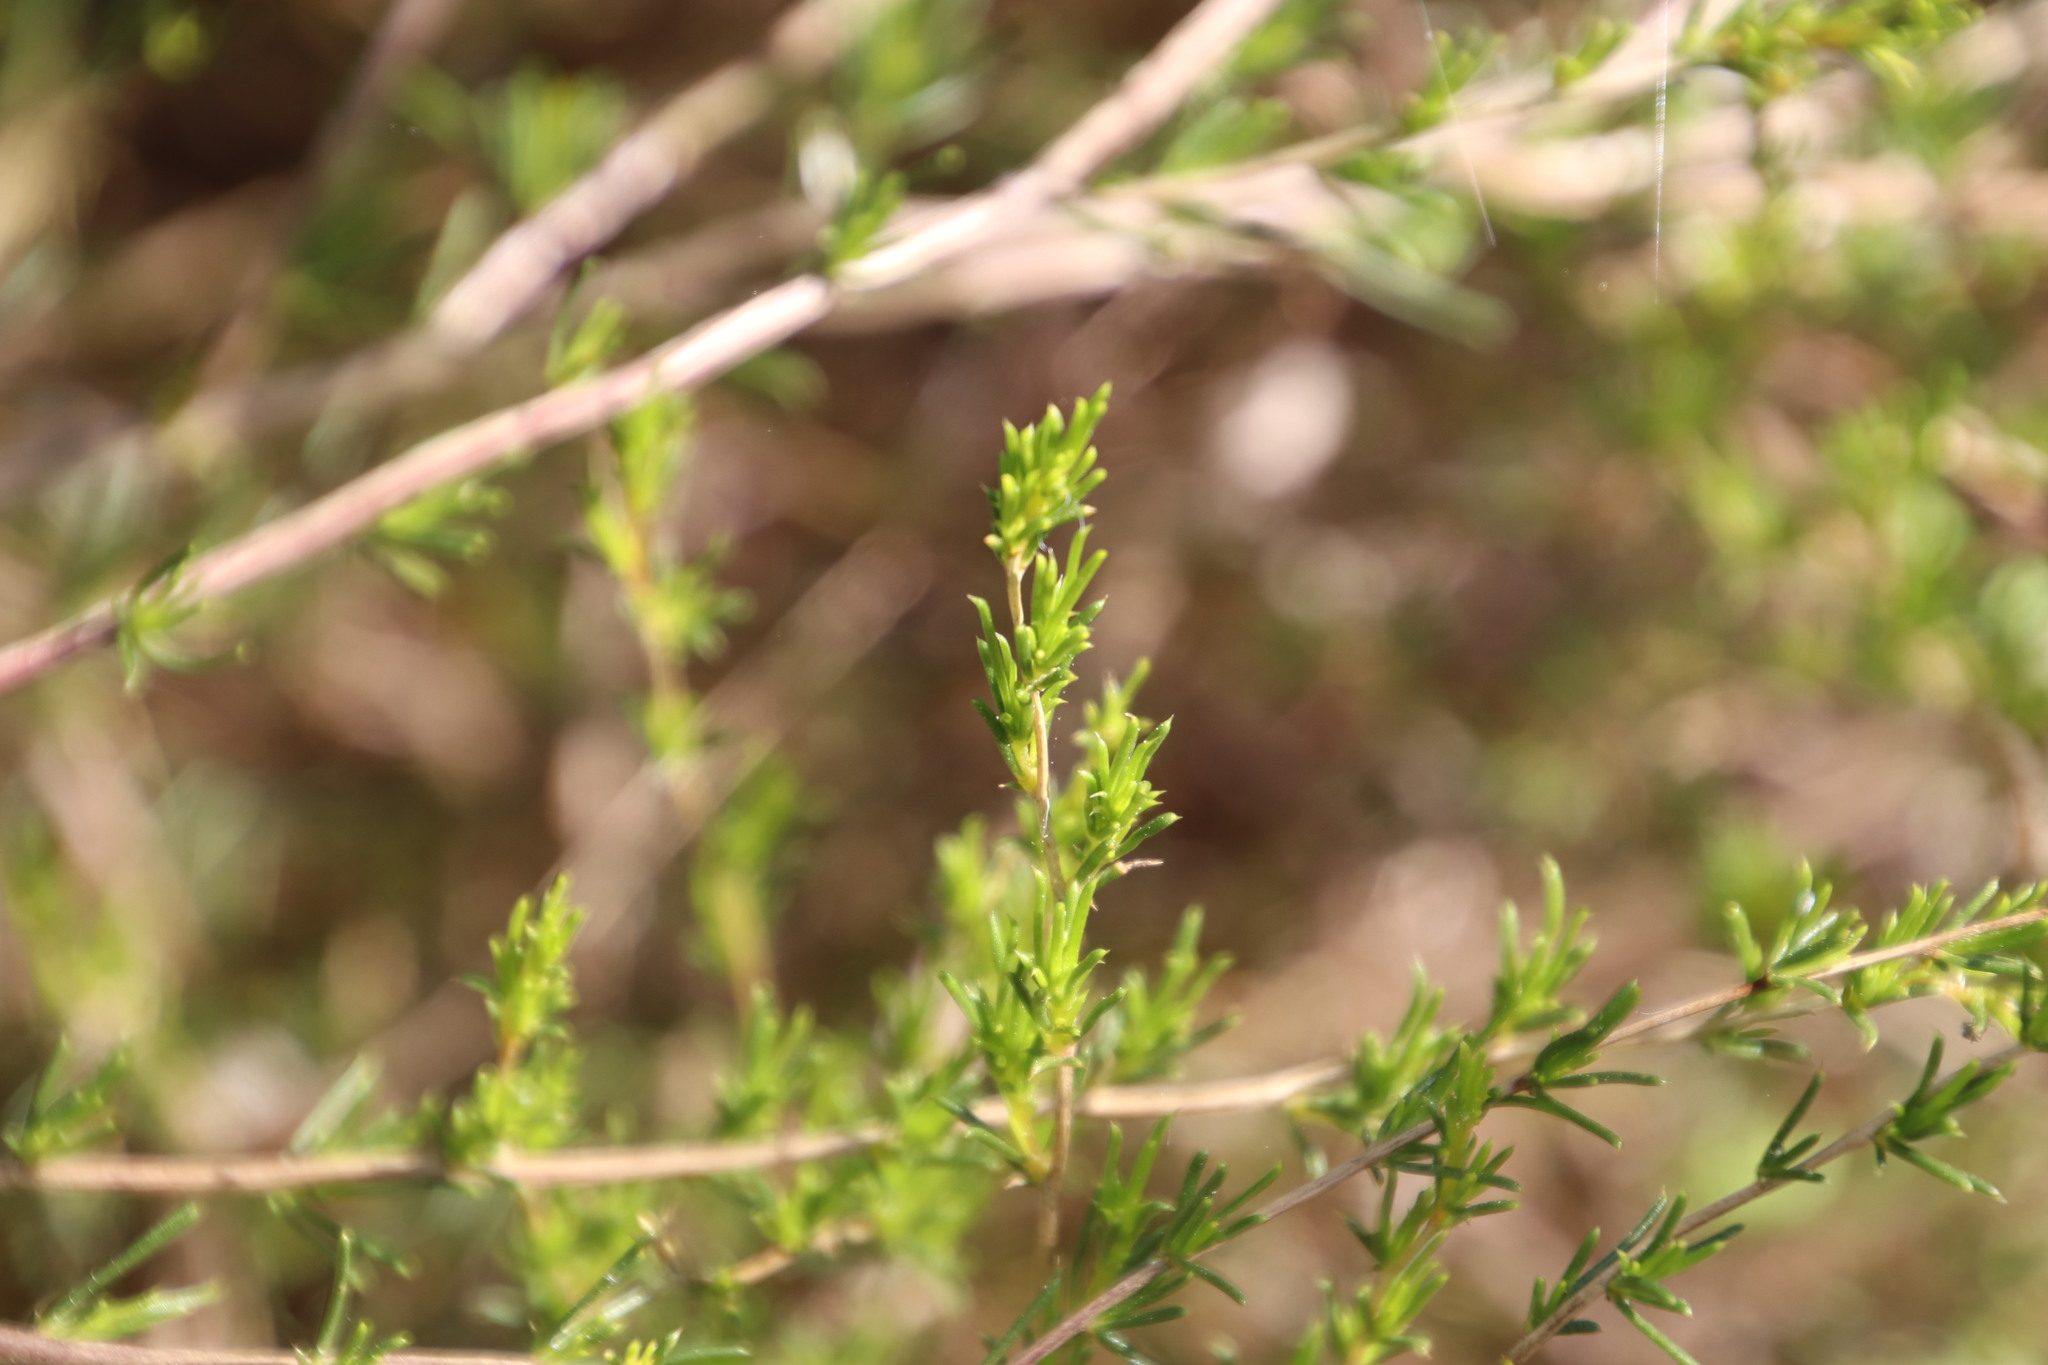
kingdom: Plantae
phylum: Tracheophyta
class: Magnoliopsida
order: Fabales
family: Fabaceae
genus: Aspalathus
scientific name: Aspalathus abietina
